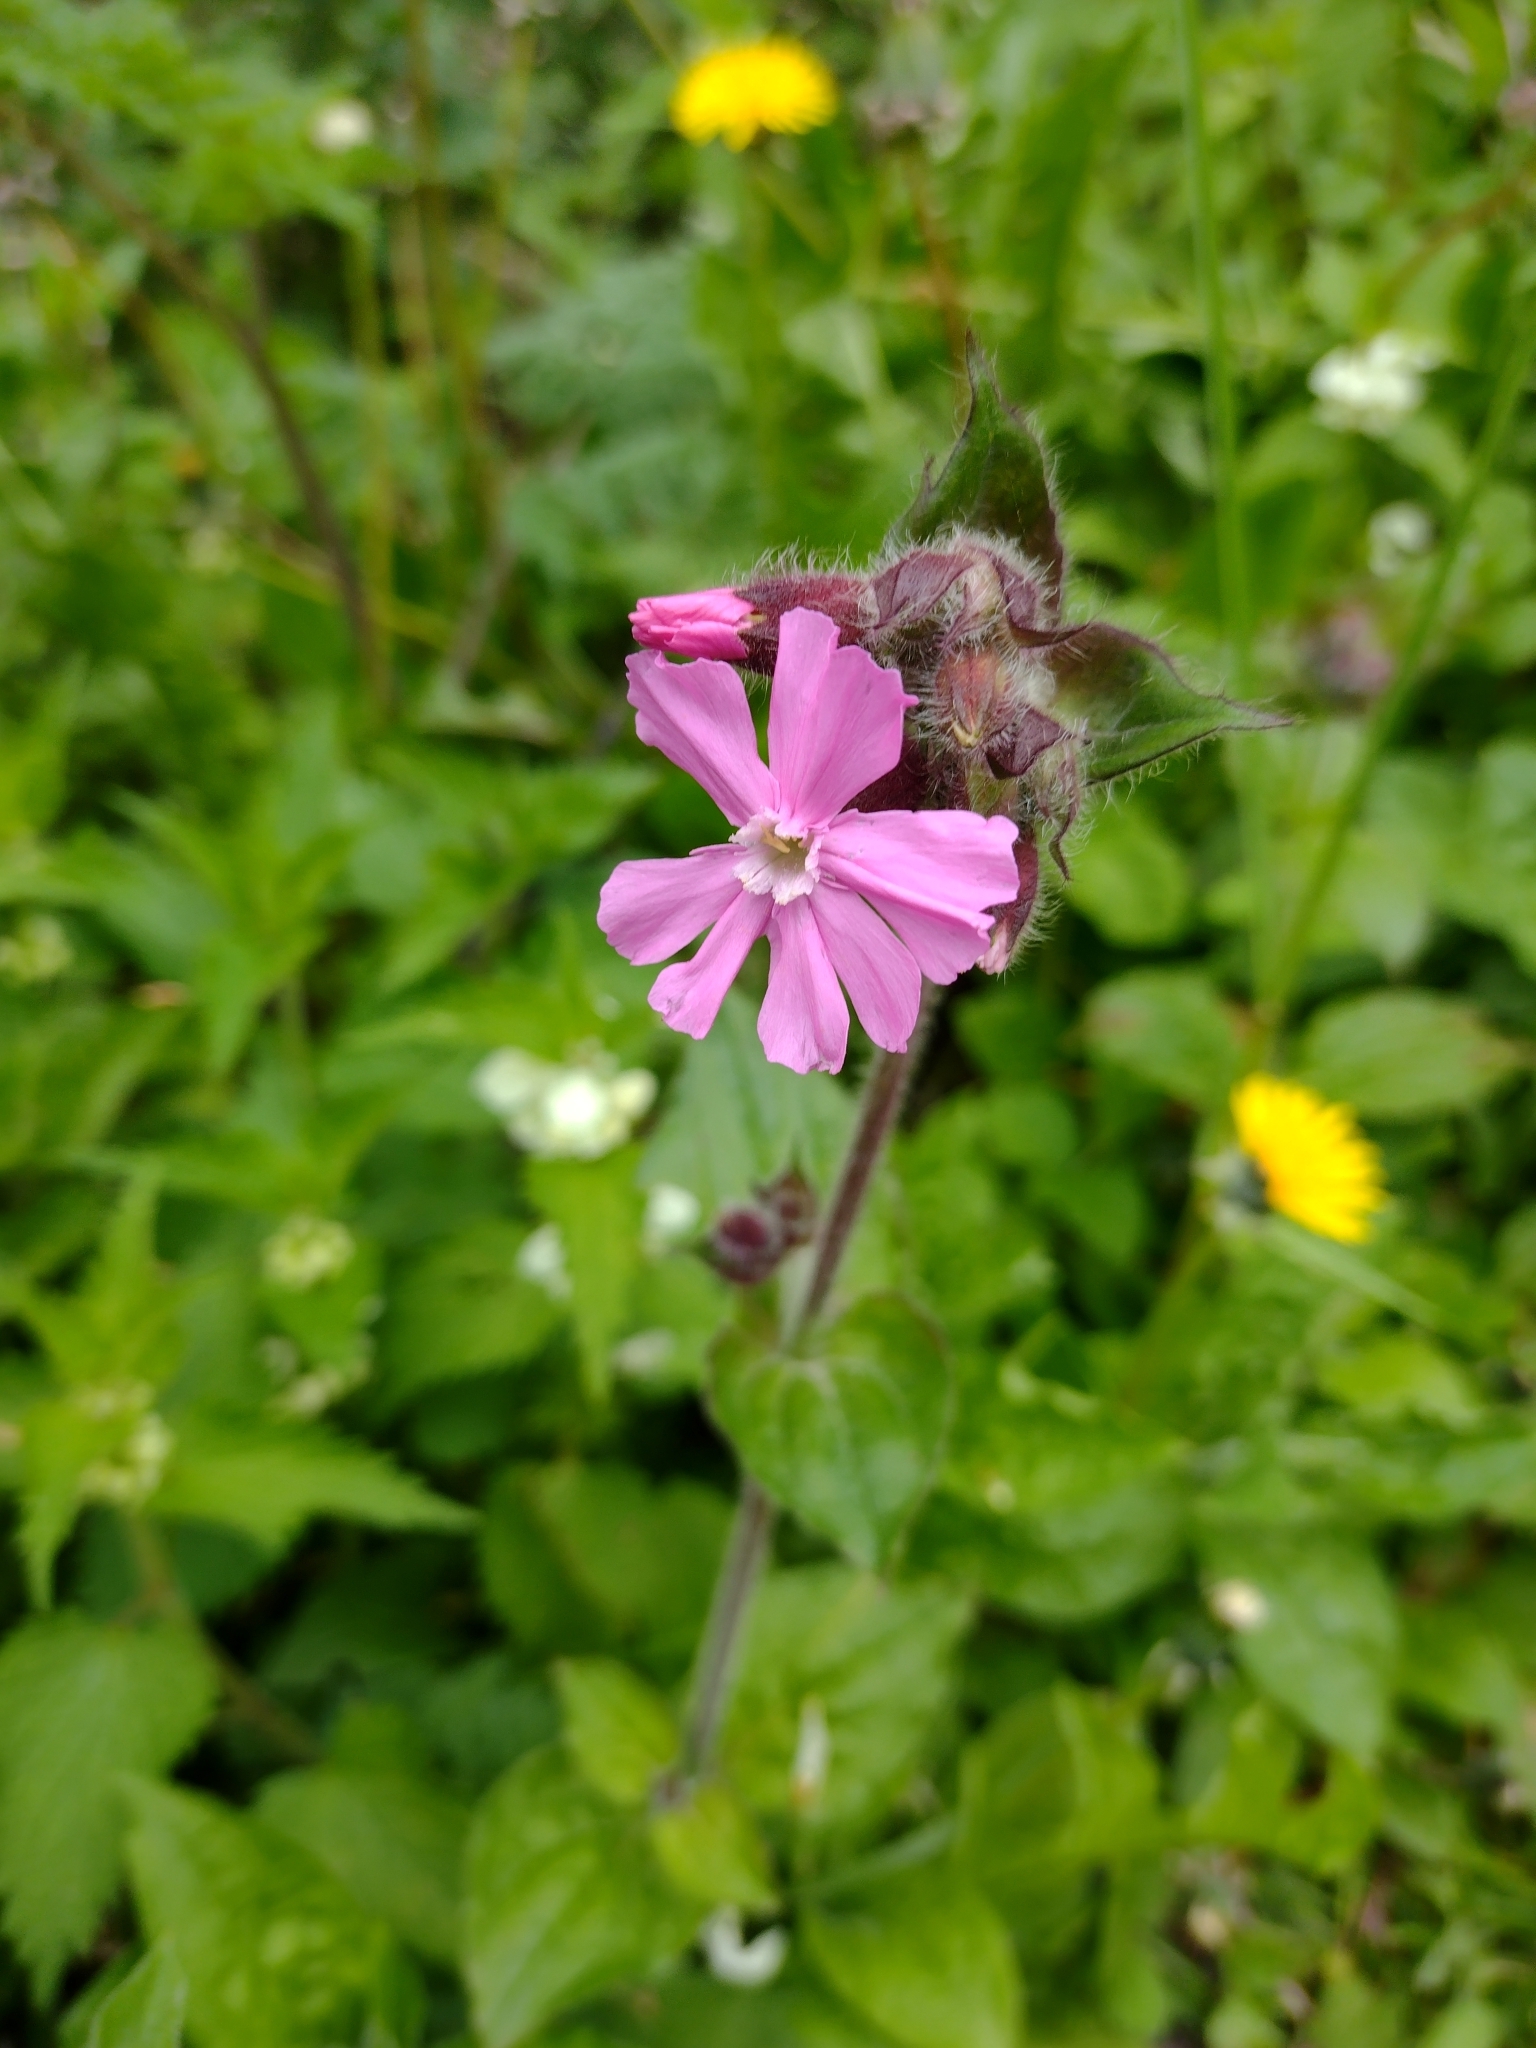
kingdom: Plantae
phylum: Tracheophyta
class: Magnoliopsida
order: Caryophyllales
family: Caryophyllaceae
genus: Silene
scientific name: Silene dioica
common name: Red campion
